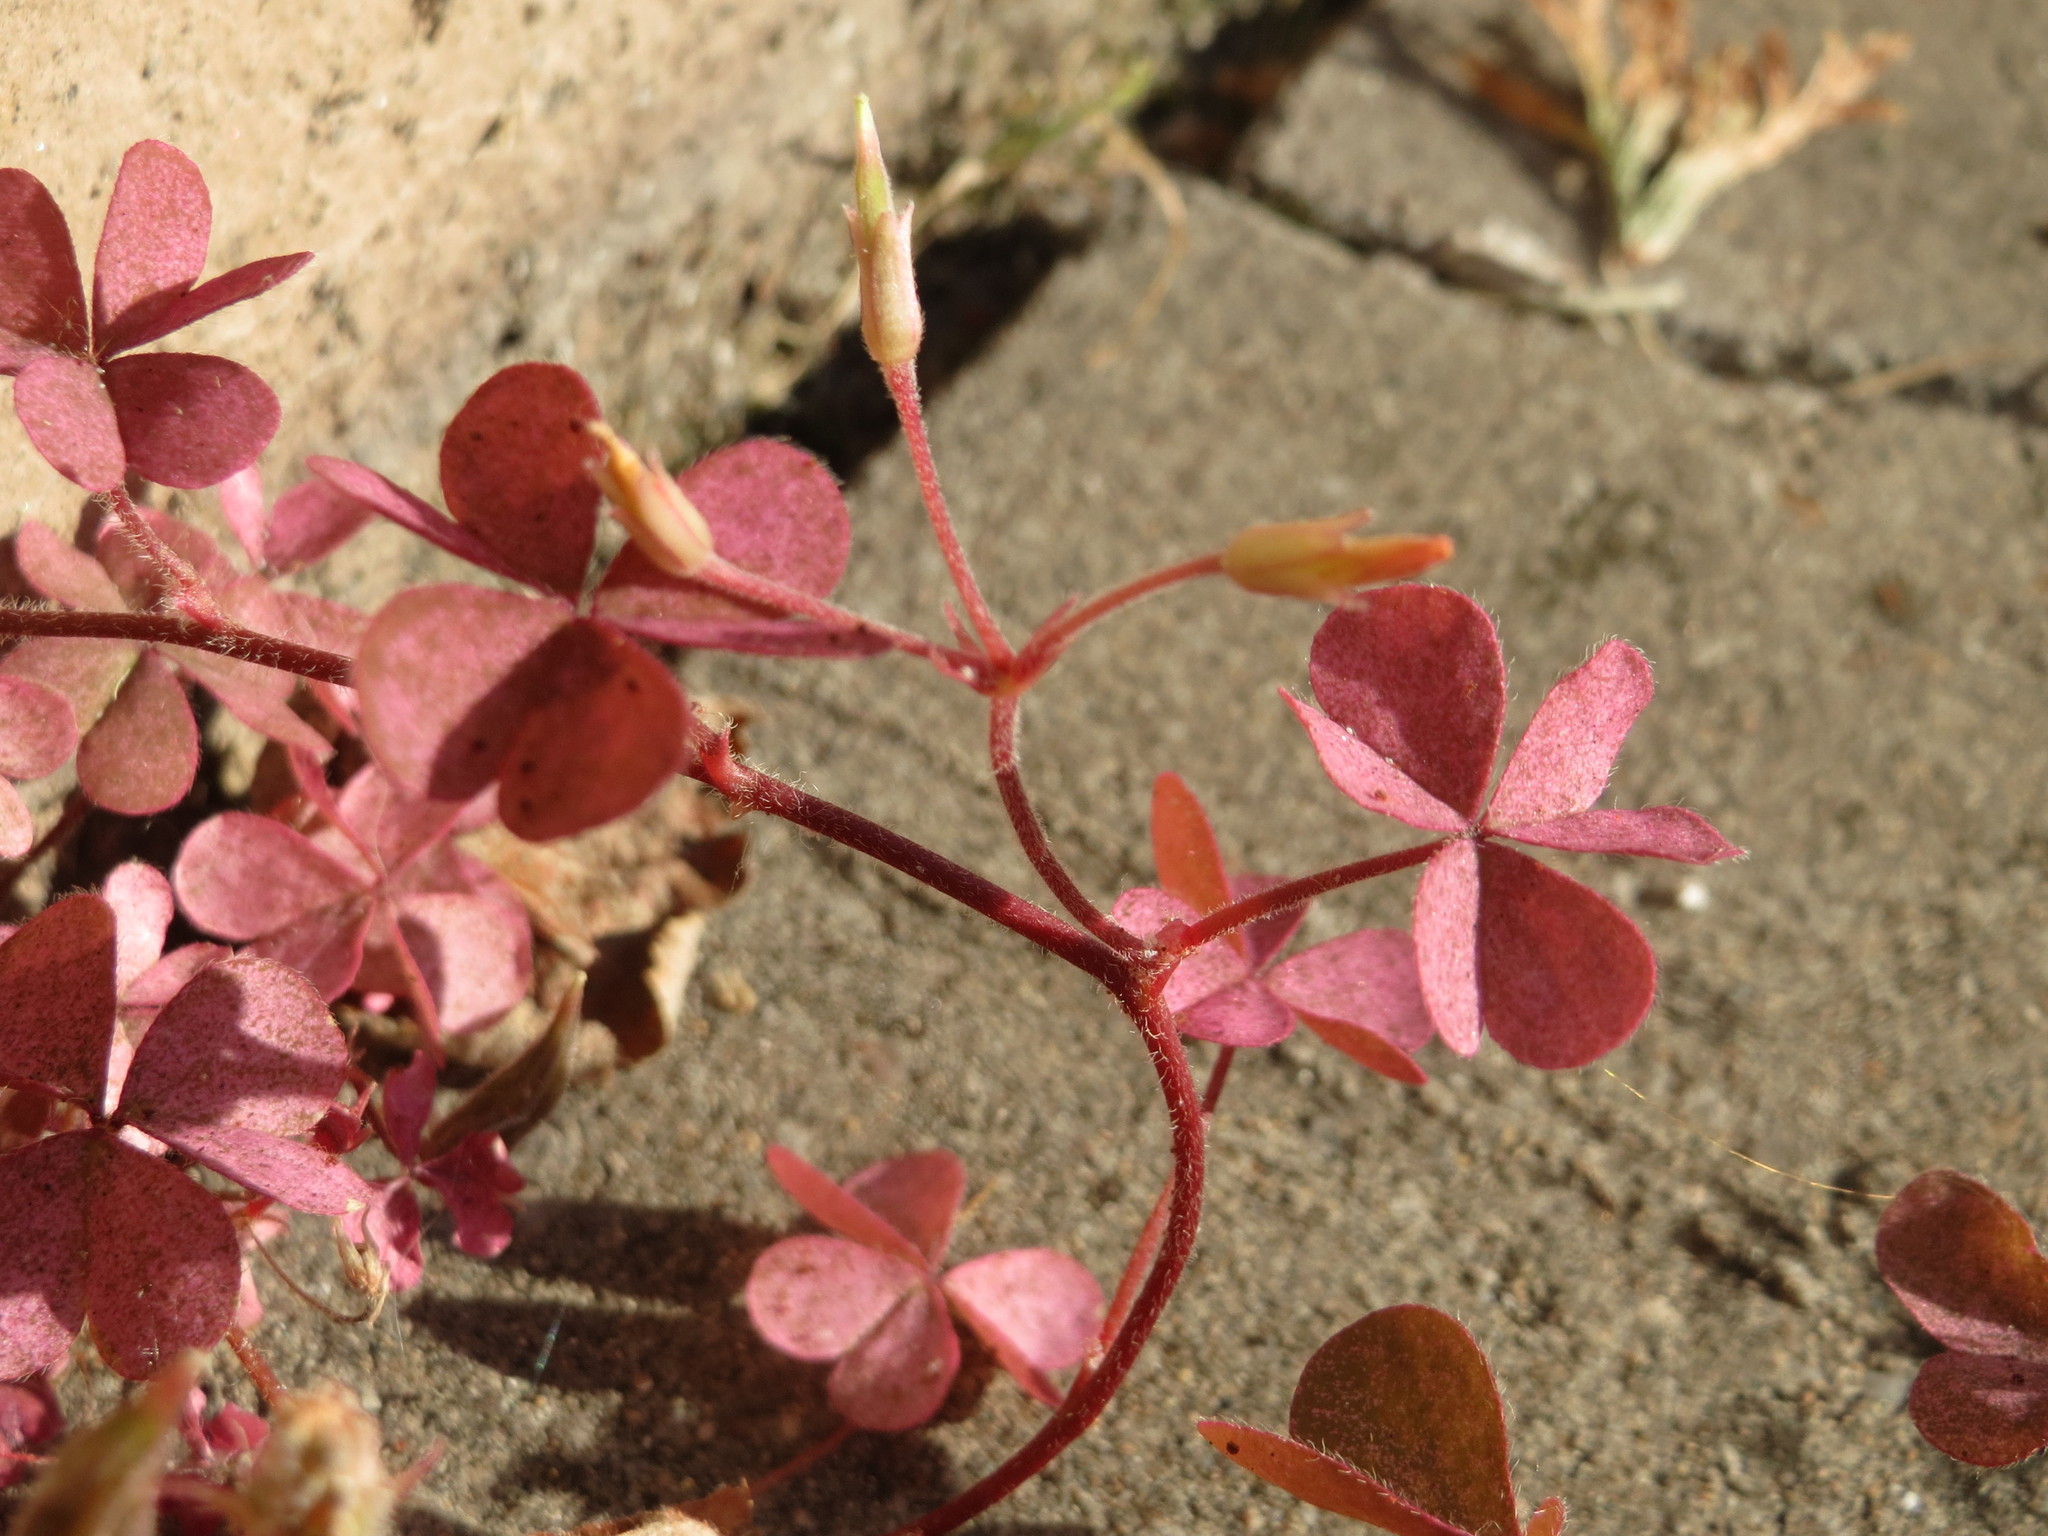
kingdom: Plantae
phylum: Tracheophyta
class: Magnoliopsida
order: Oxalidales
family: Oxalidaceae
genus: Oxalis
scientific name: Oxalis corniculata
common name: Procumbent yellow-sorrel
